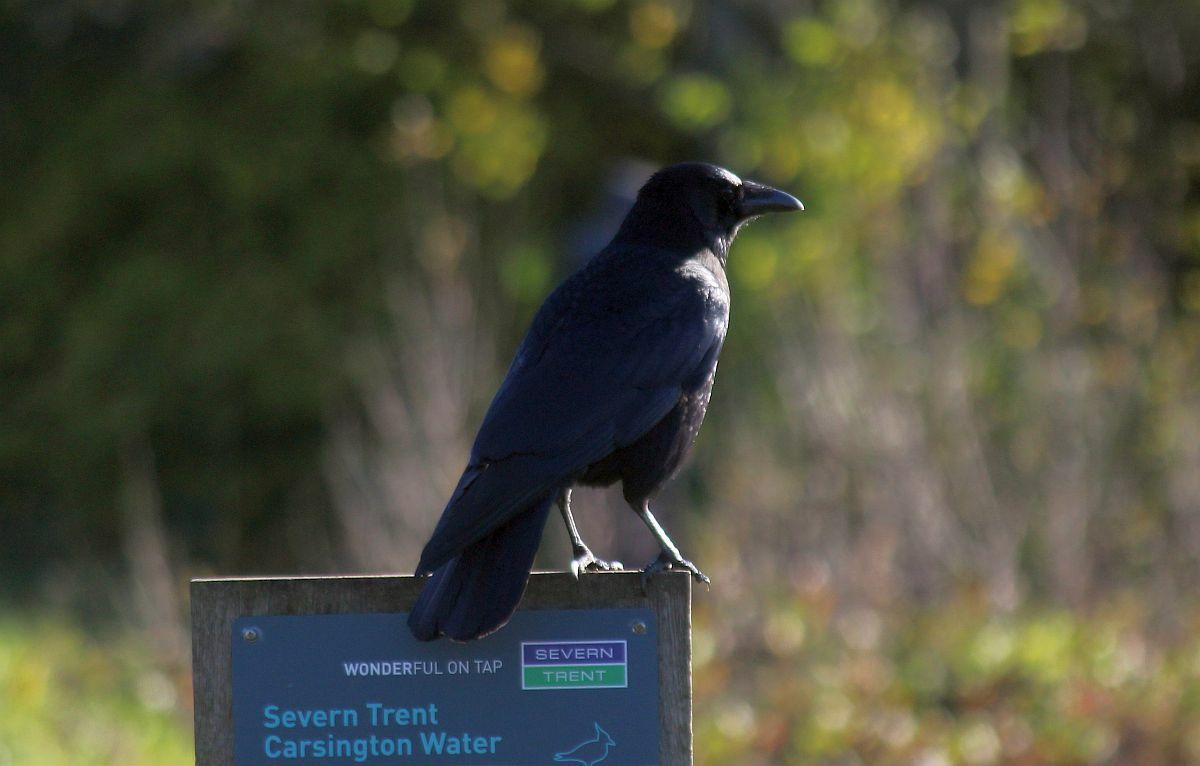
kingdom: Animalia
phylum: Chordata
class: Aves
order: Passeriformes
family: Corvidae
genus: Corvus
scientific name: Corvus corone
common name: Carrion crow
